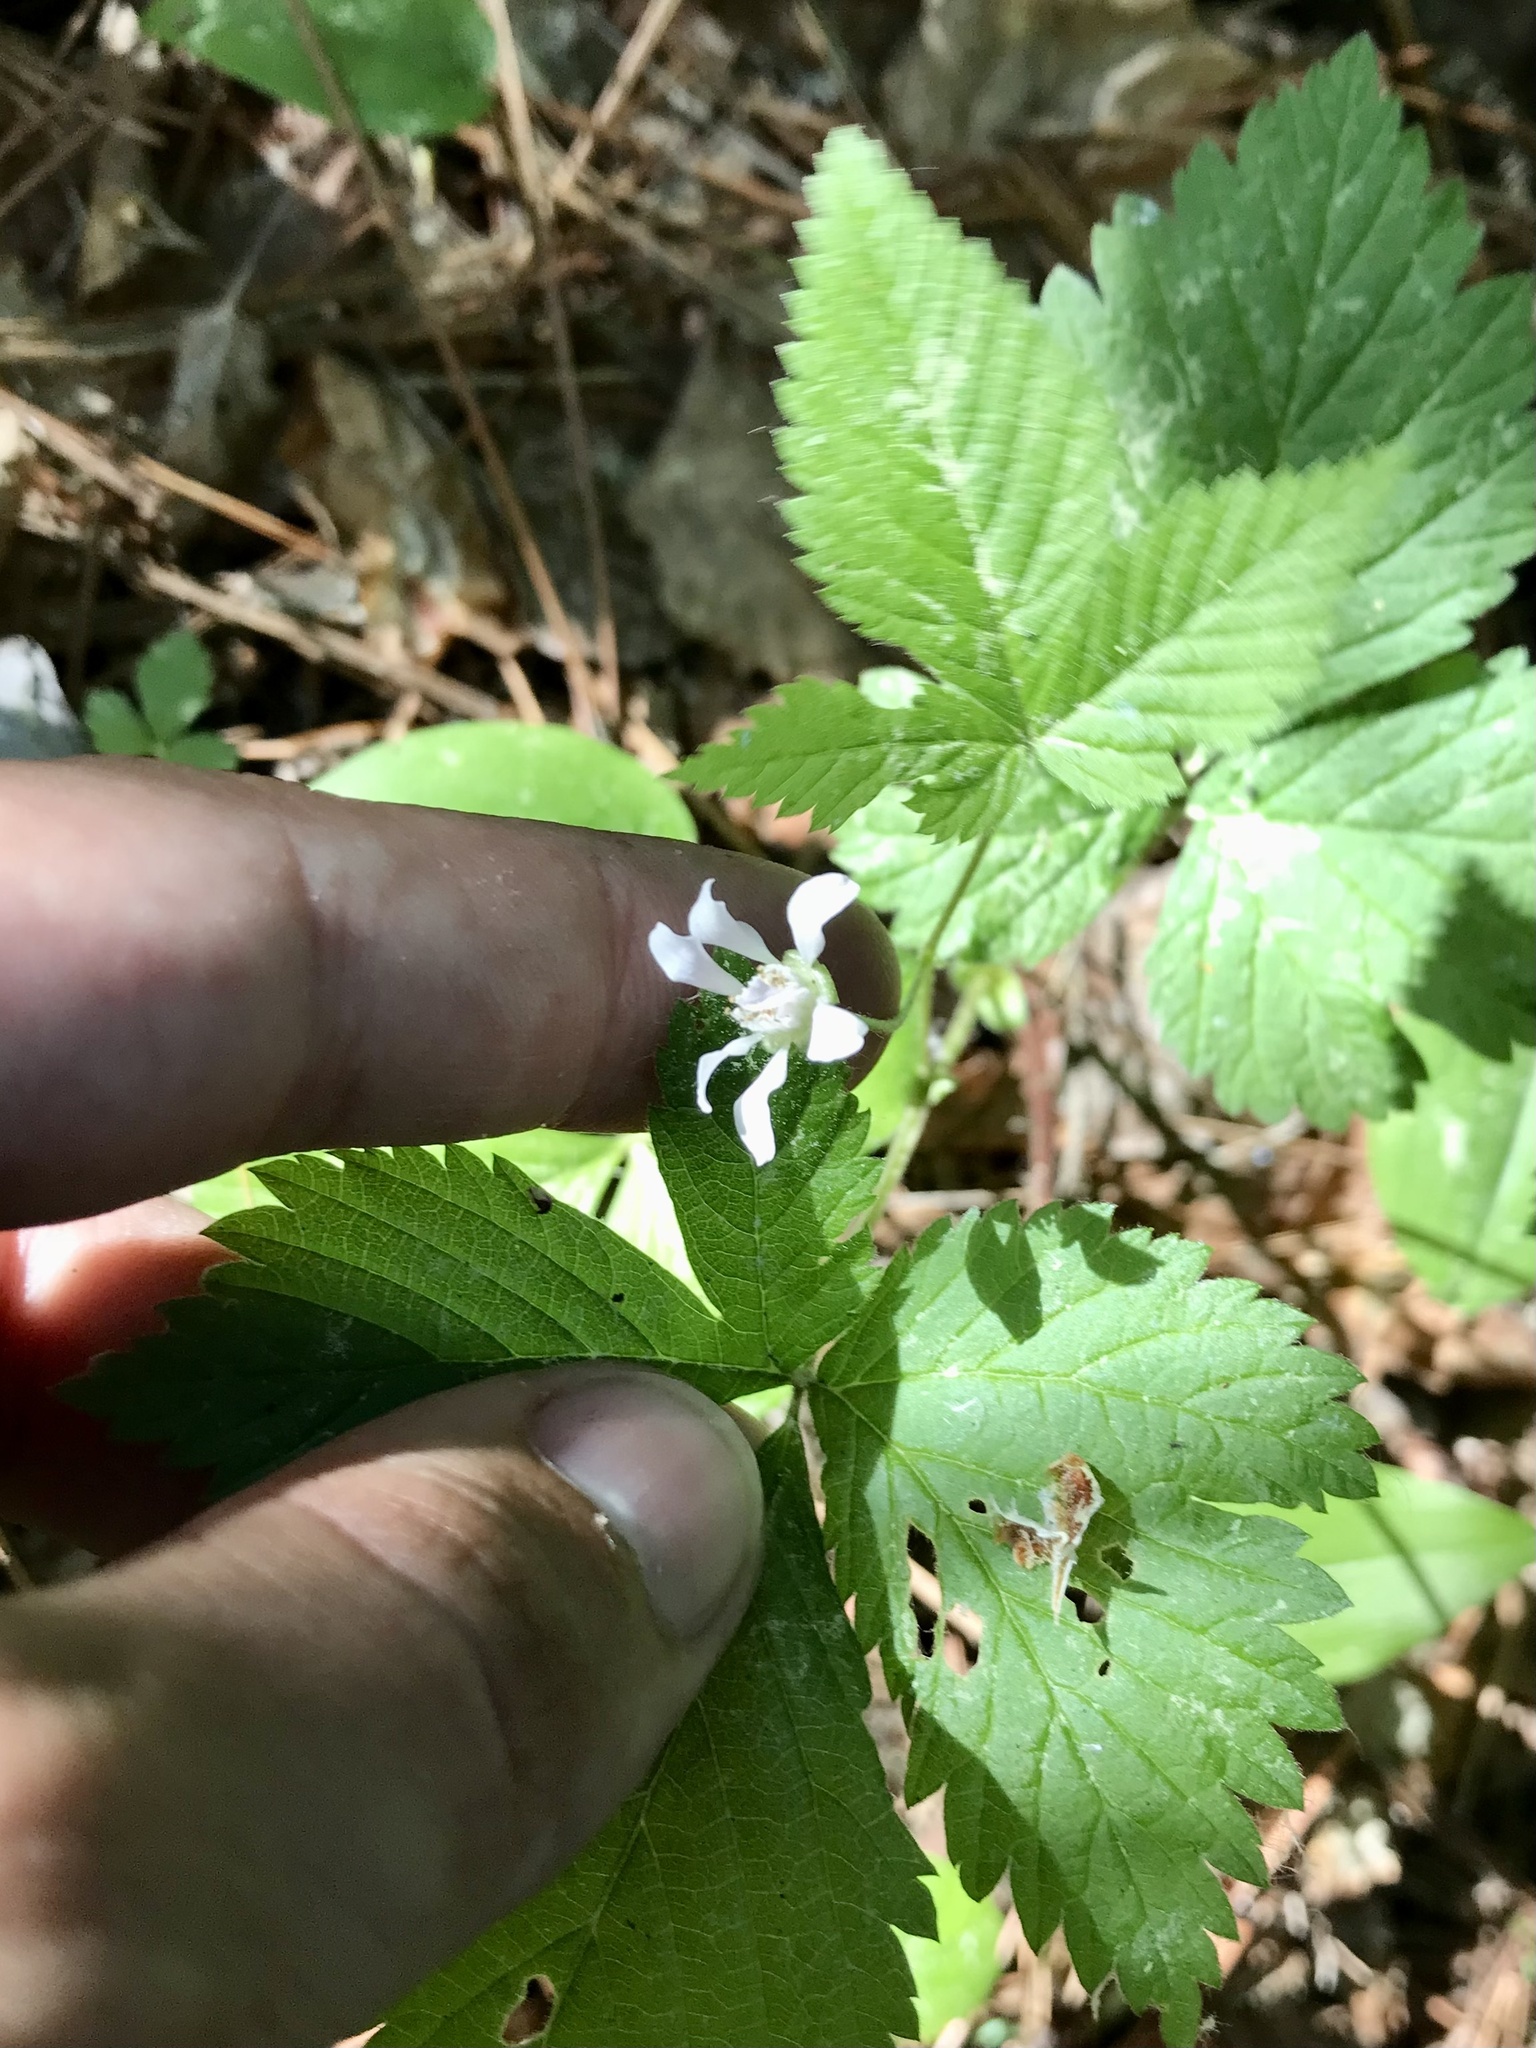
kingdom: Plantae
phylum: Tracheophyta
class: Magnoliopsida
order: Rosales
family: Rosaceae
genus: Rubus
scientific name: Rubus pubescens
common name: Dwarf raspberry
